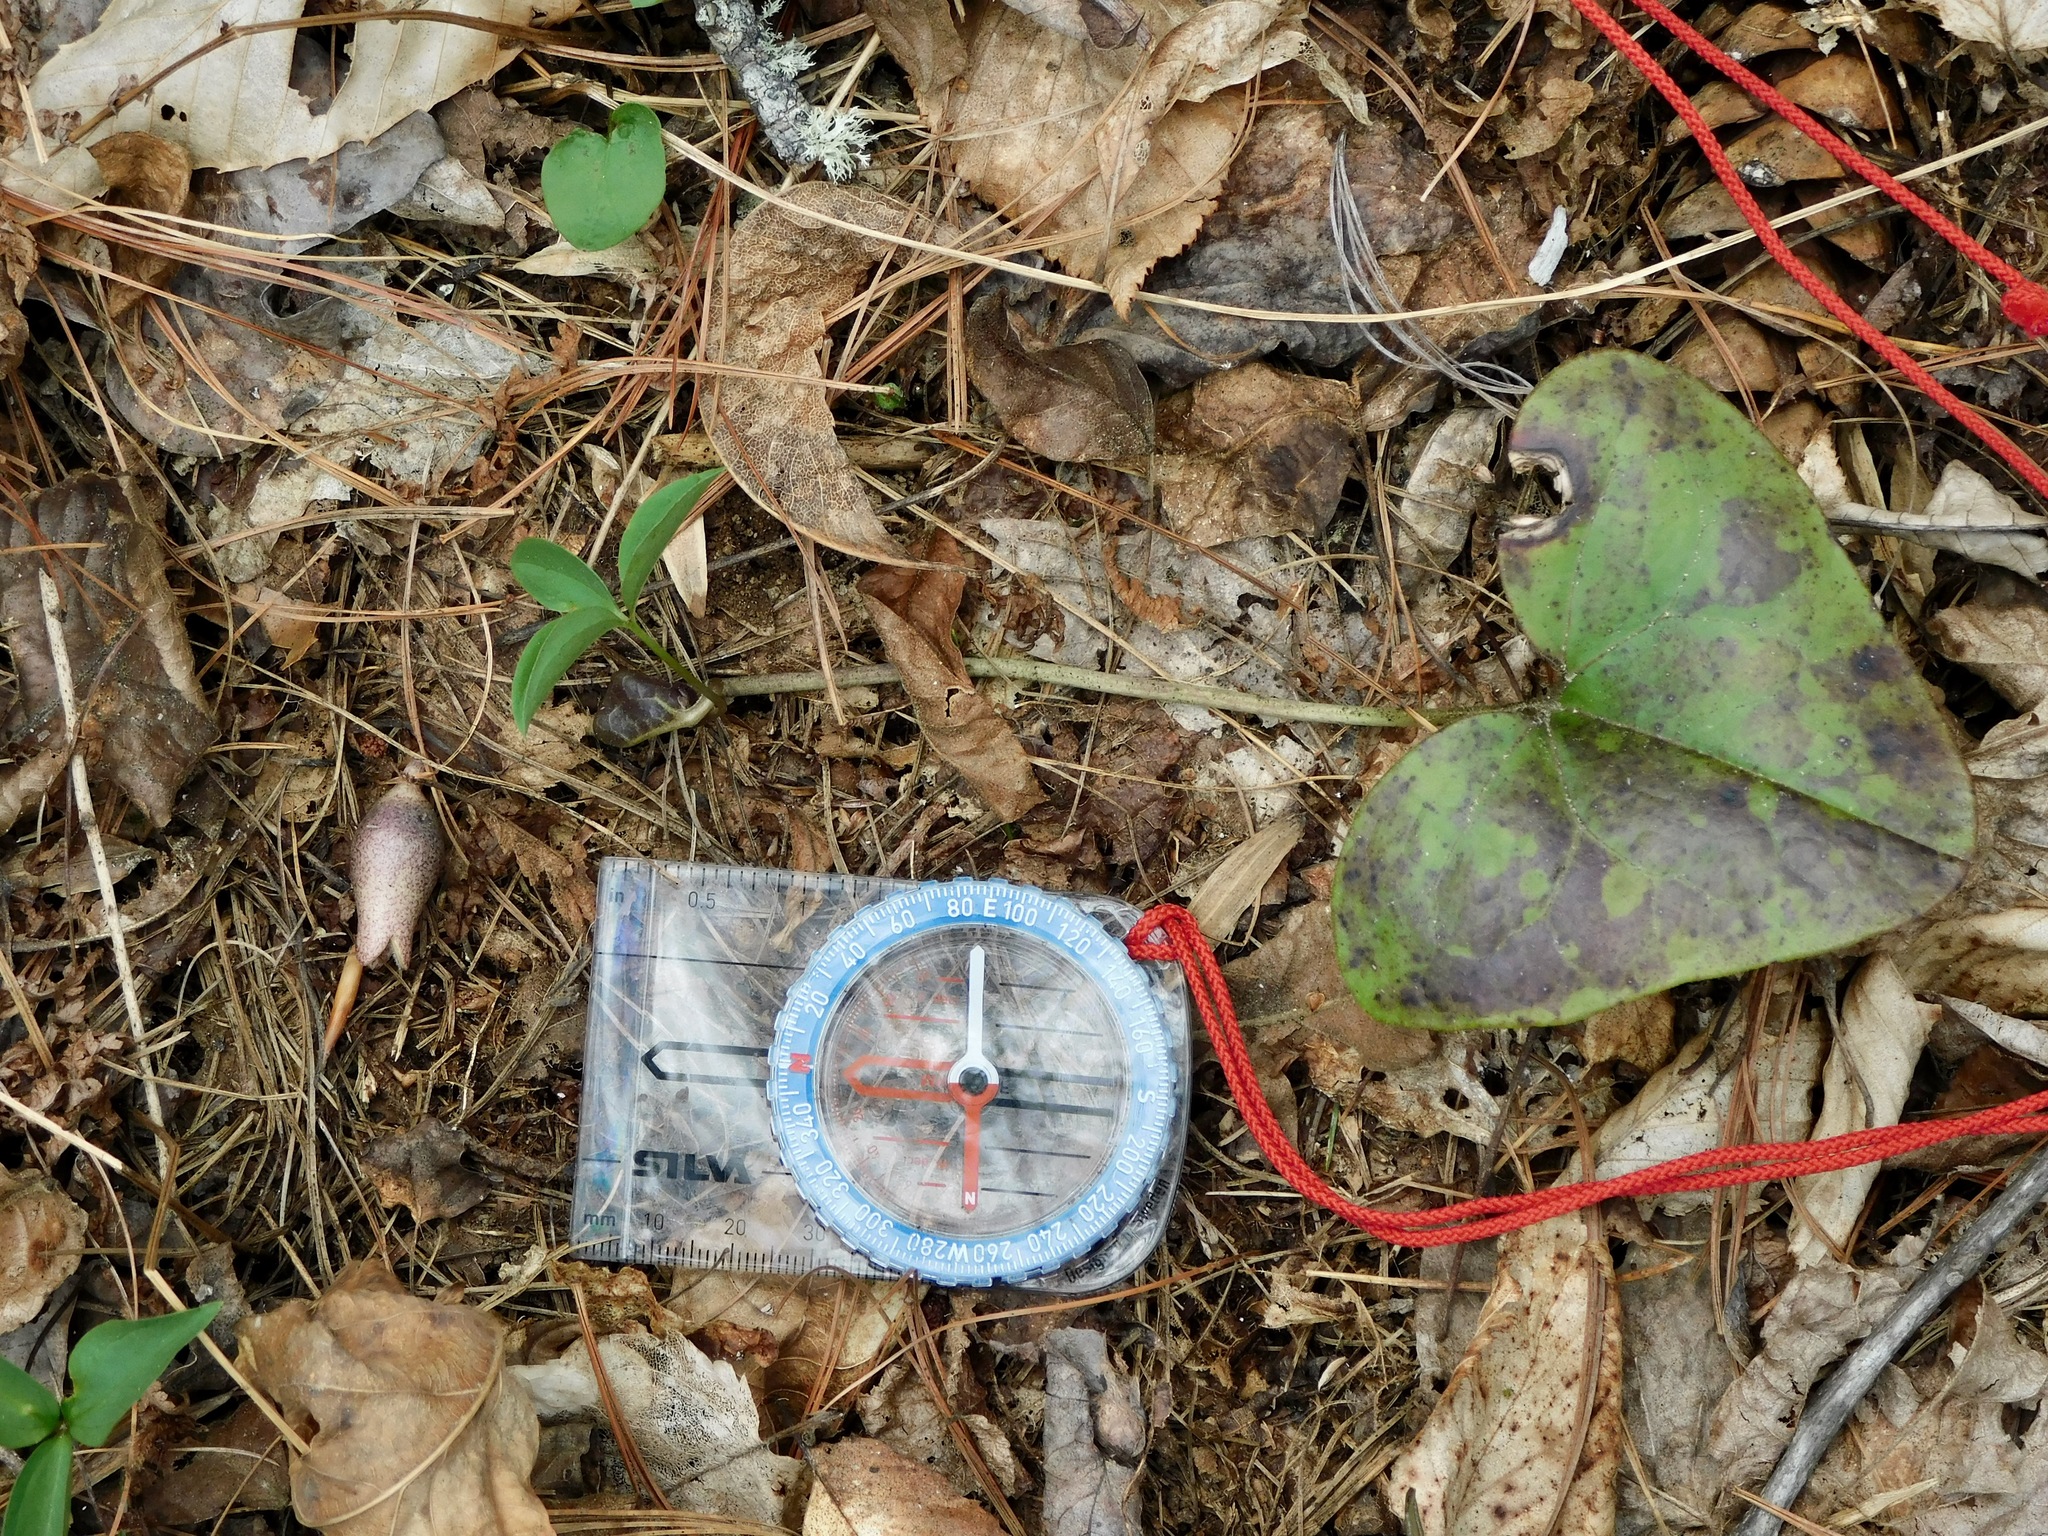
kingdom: Plantae
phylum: Tracheophyta
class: Magnoliopsida
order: Piperales
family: Aristolochiaceae
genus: Hexastylis
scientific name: Hexastylis arifolia
